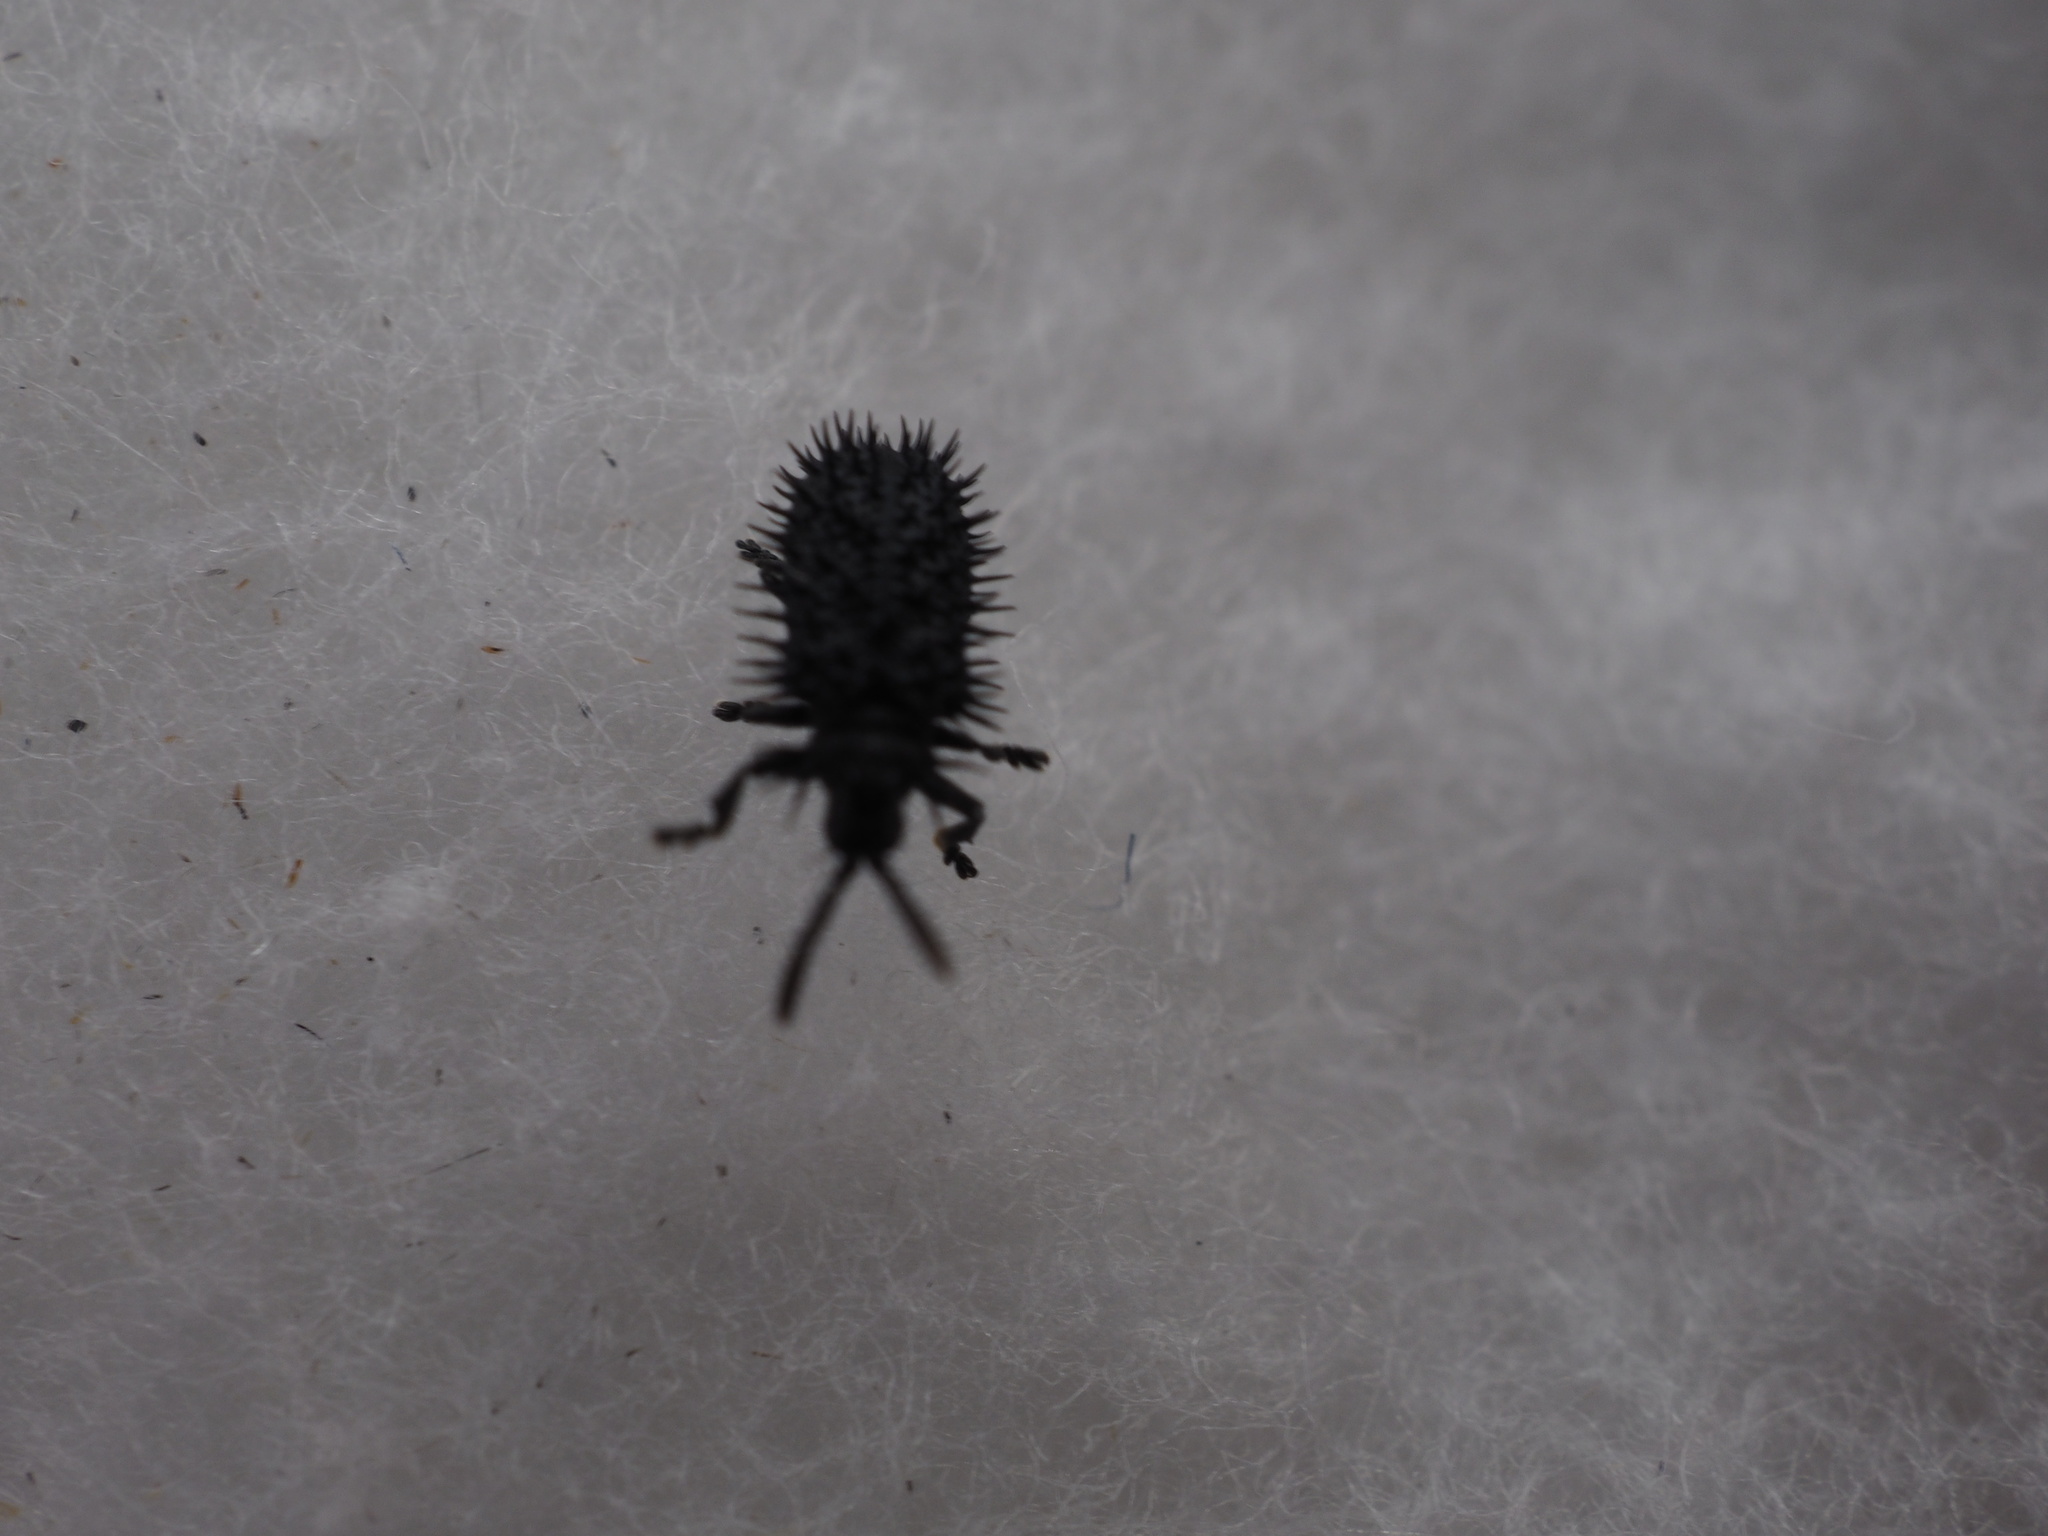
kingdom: Animalia
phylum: Arthropoda
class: Insecta
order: Coleoptera
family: Chrysomelidae
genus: Hispa
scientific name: Hispa atra
